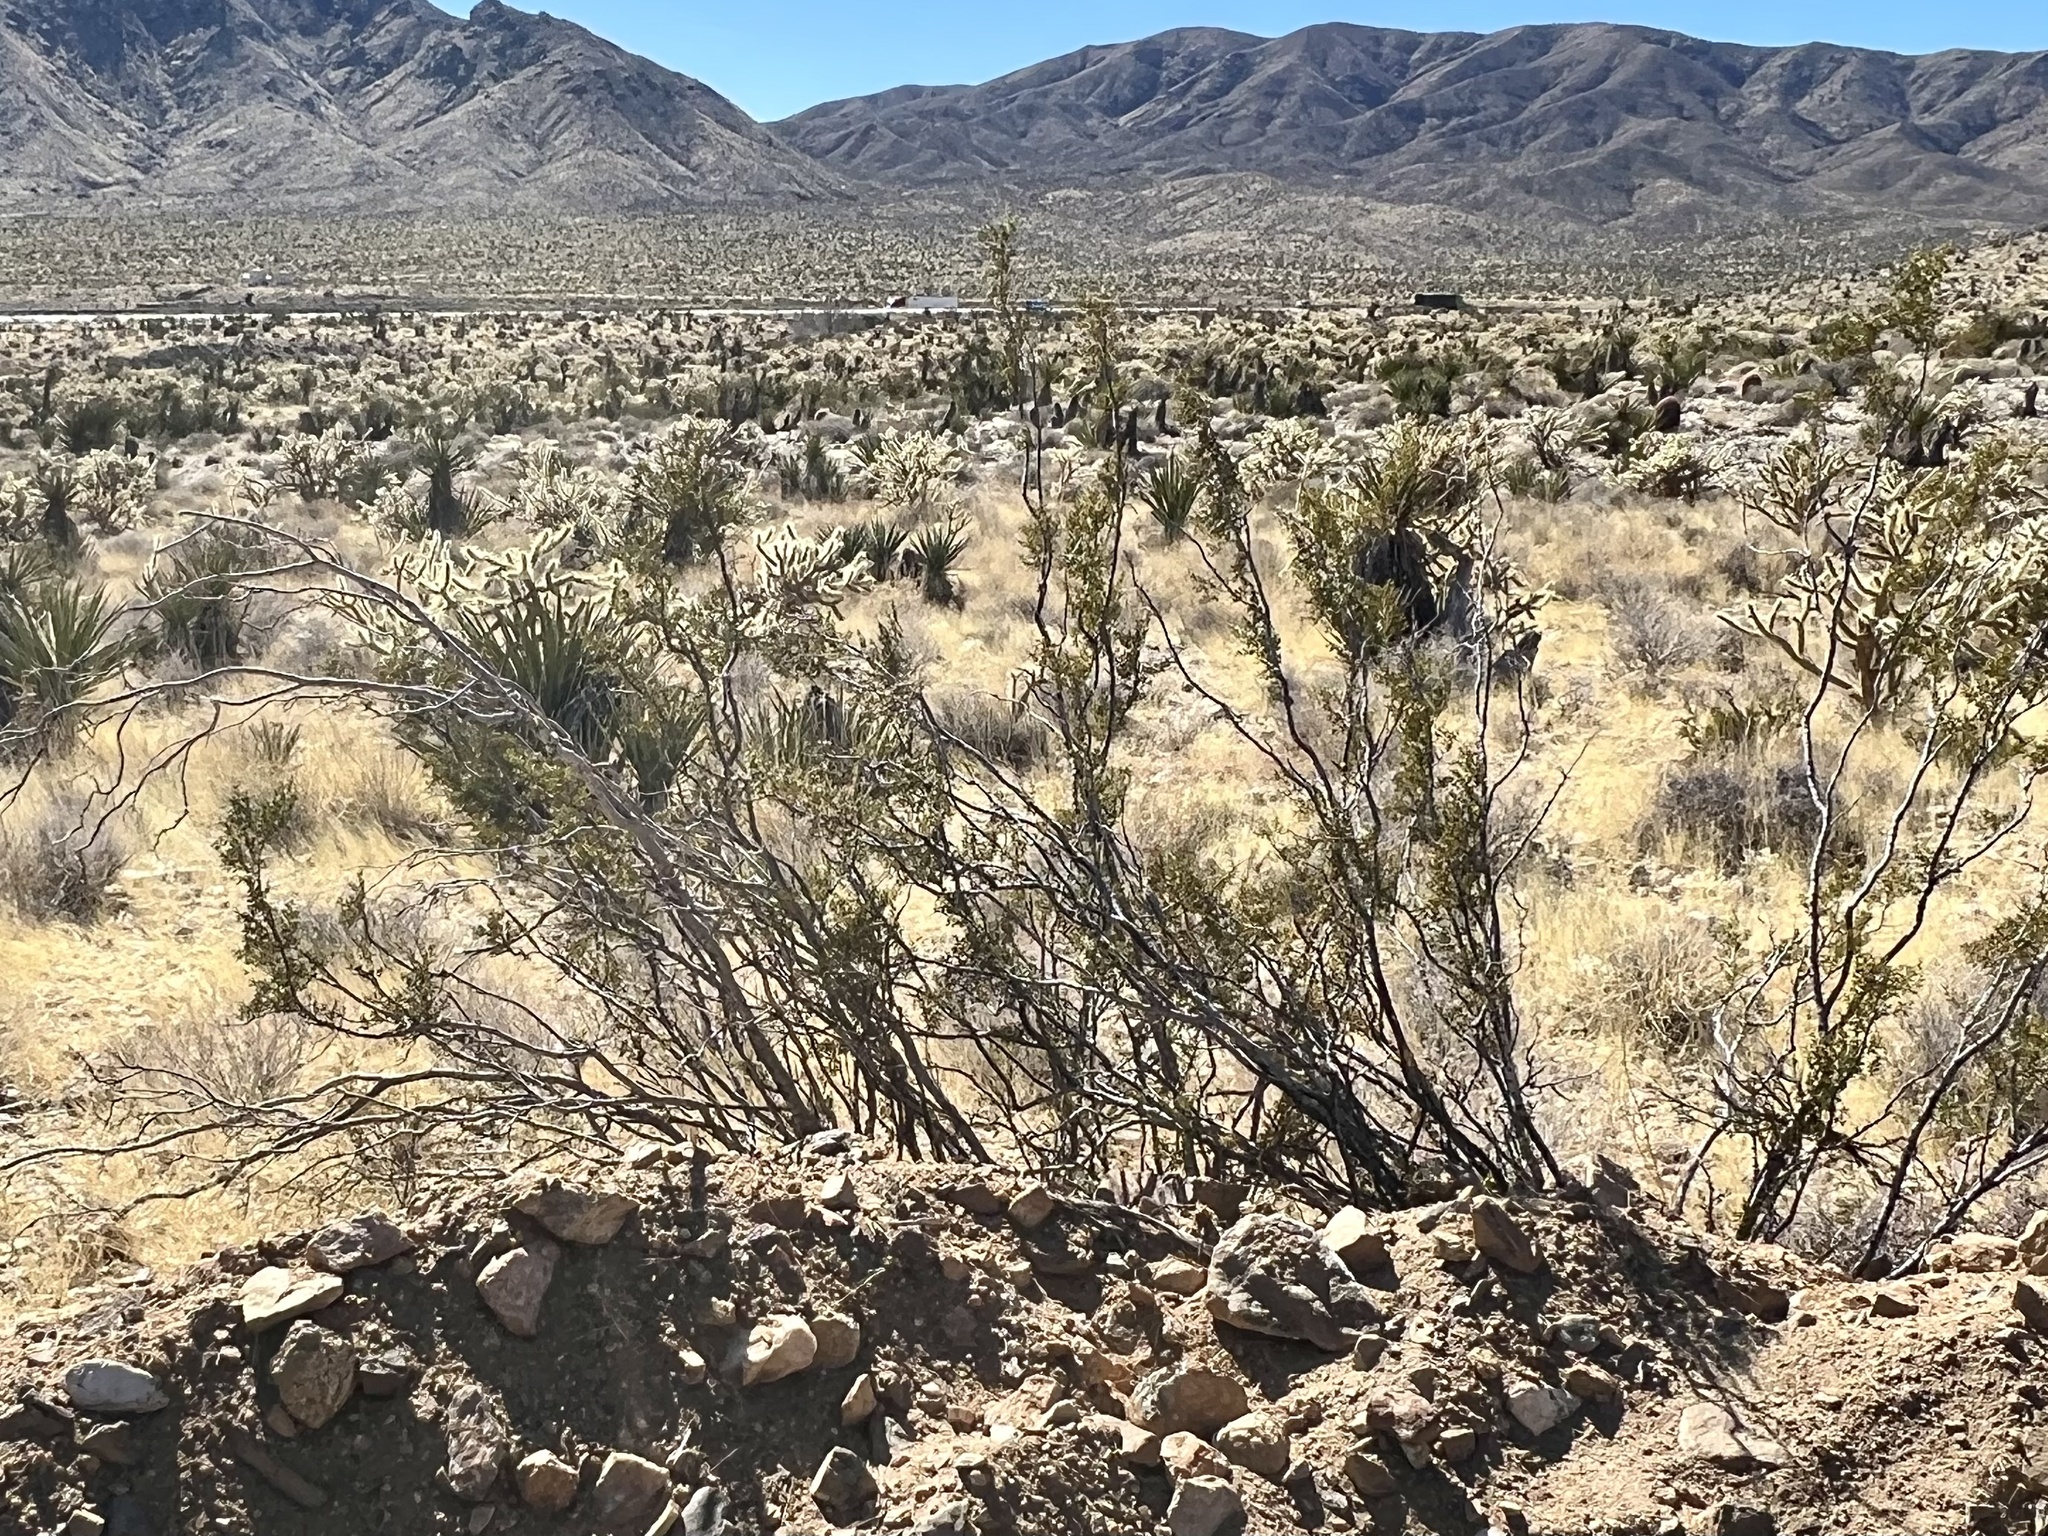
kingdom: Plantae
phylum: Tracheophyta
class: Magnoliopsida
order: Zygophyllales
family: Zygophyllaceae
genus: Larrea
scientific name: Larrea tridentata
